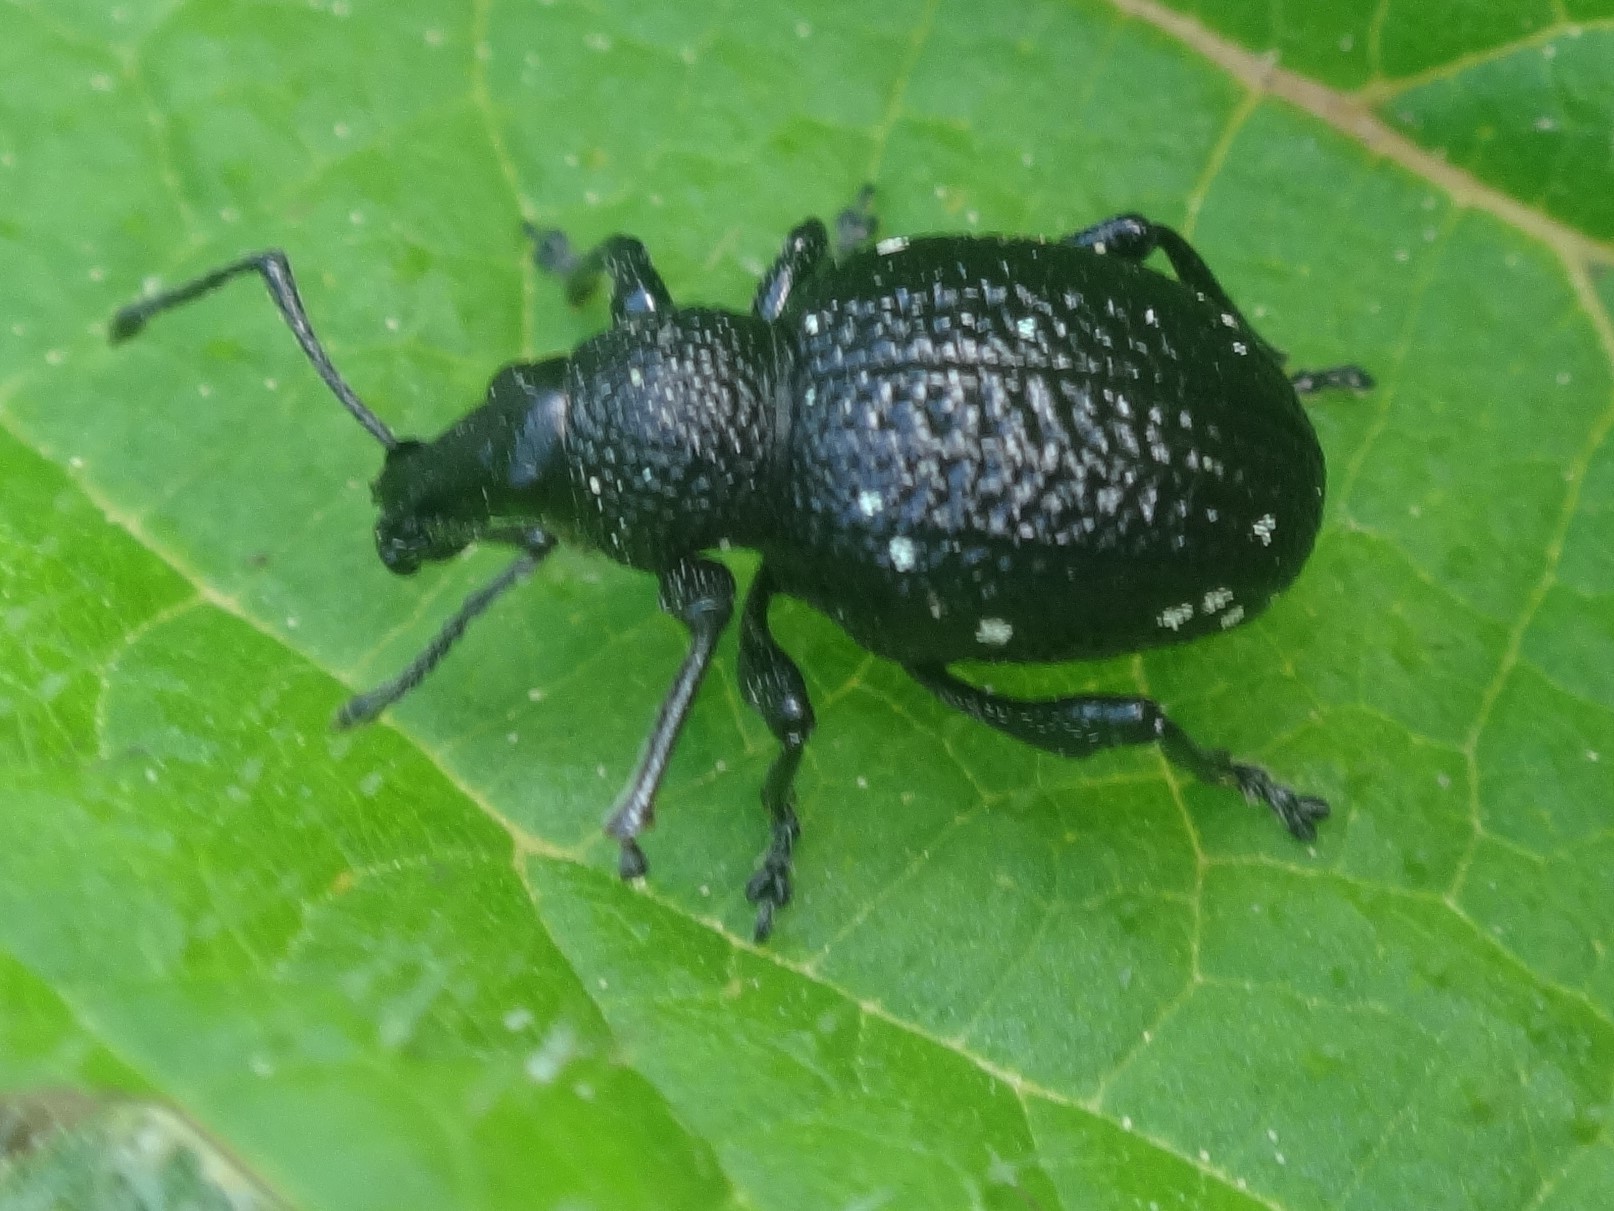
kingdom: Animalia
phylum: Arthropoda
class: Insecta
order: Coleoptera
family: Curculionidae
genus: Otiorhynchus
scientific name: Otiorhynchus gemmatus
